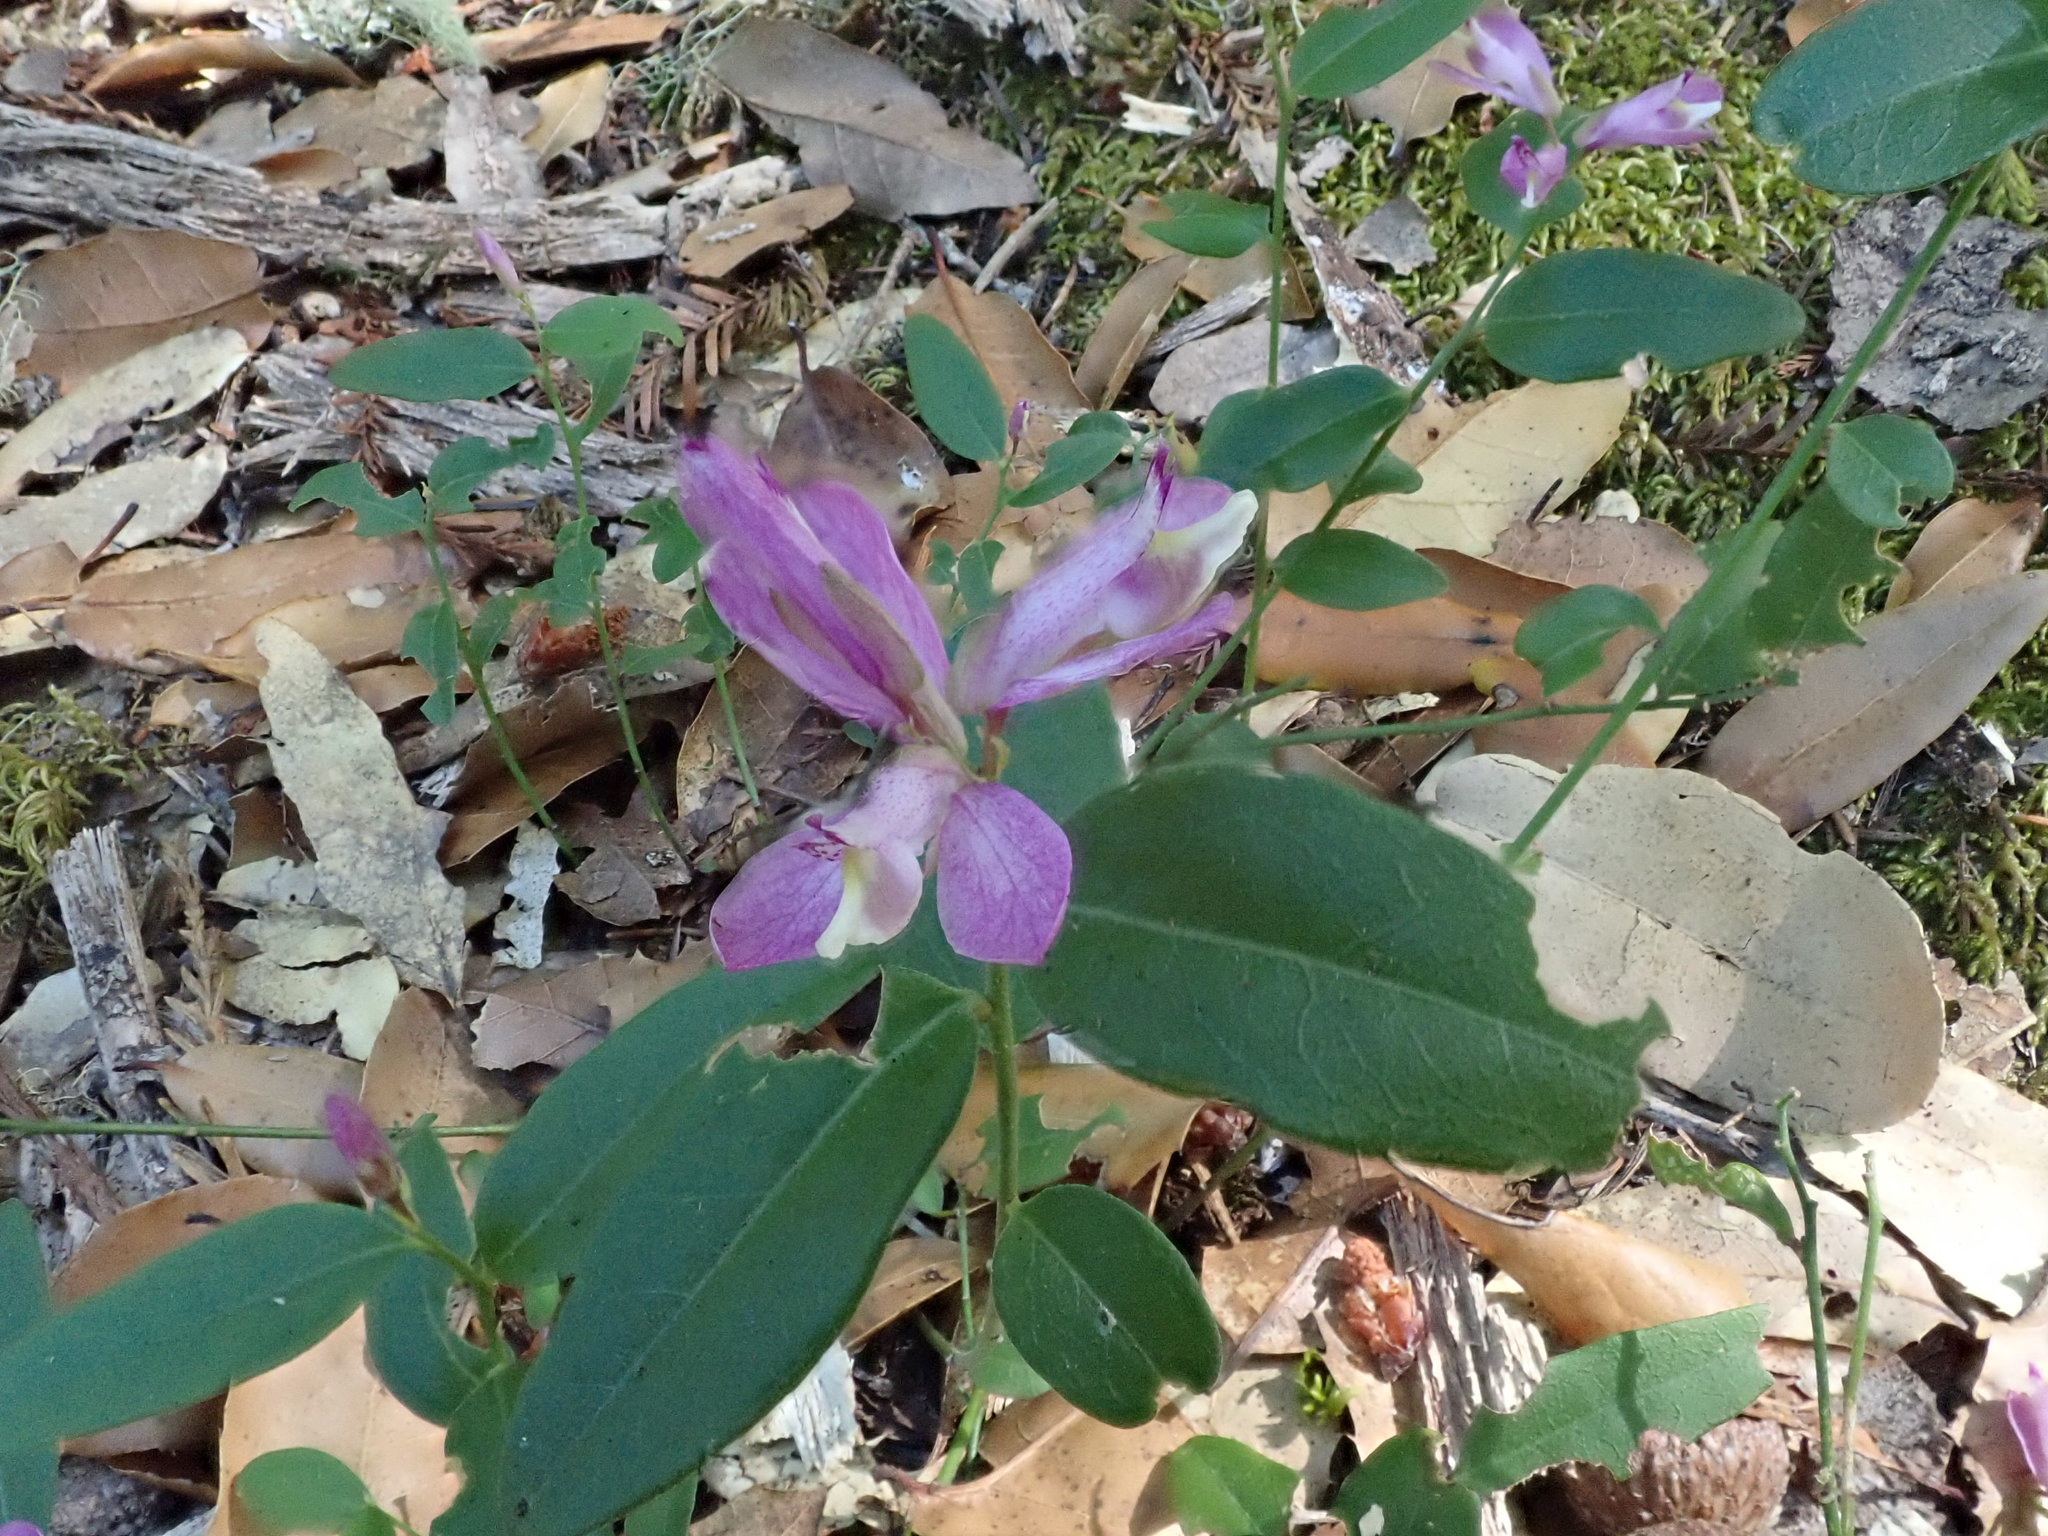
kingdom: Plantae
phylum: Tracheophyta
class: Magnoliopsida
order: Fabales
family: Polygalaceae
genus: Rhinotropis
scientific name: Rhinotropis californica
